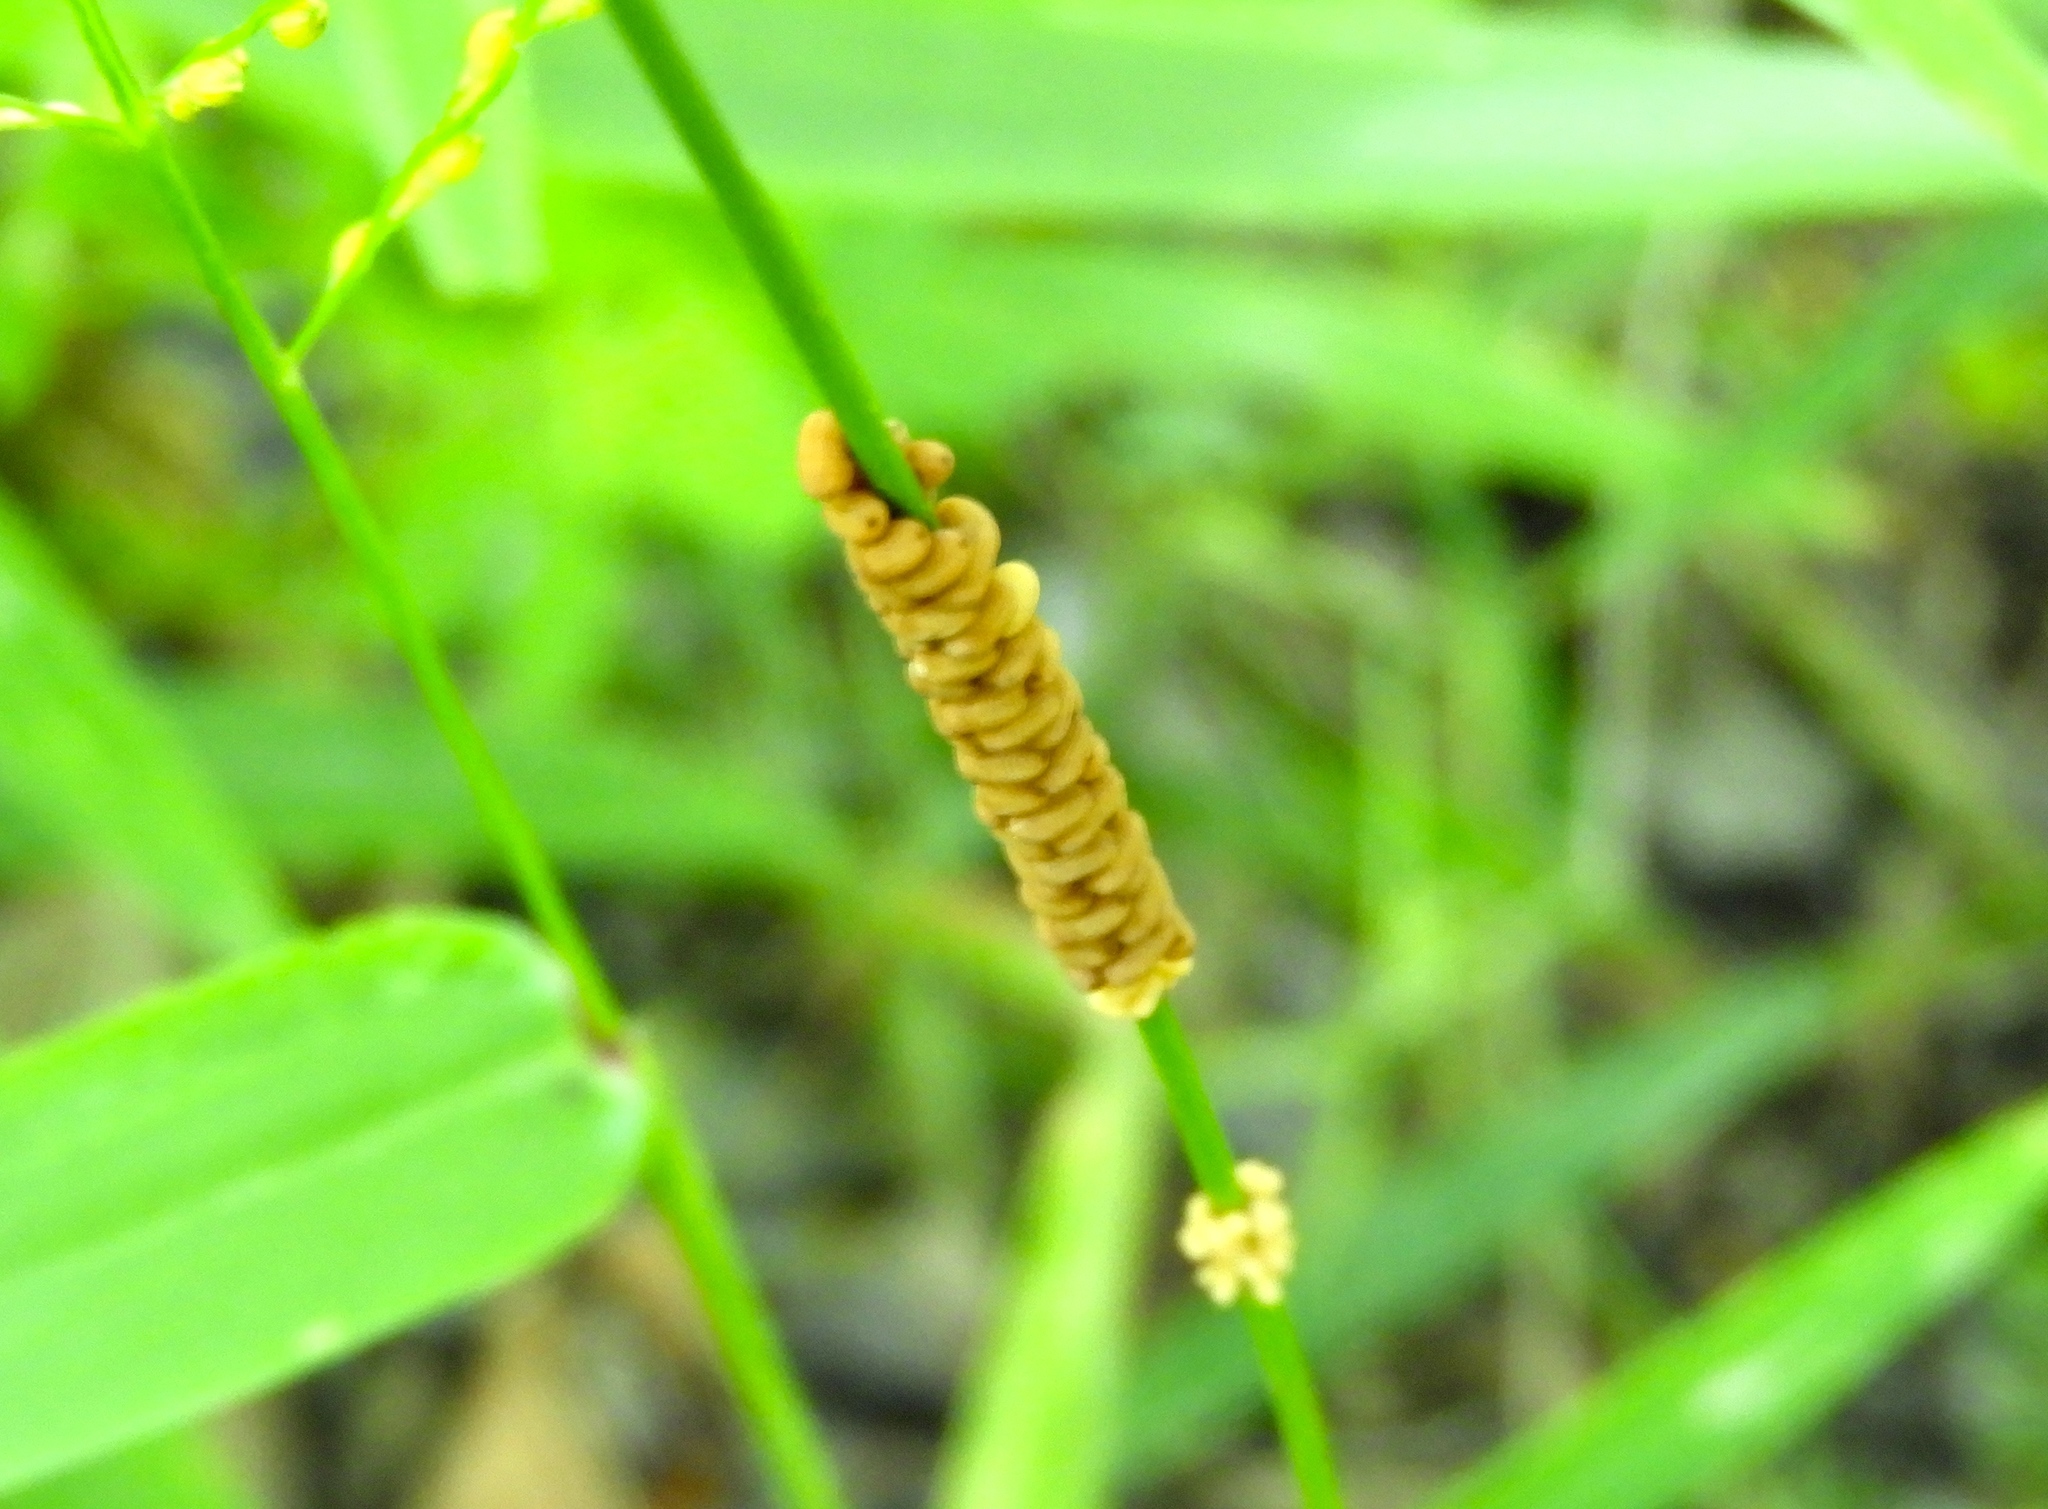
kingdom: Animalia
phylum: Arthropoda
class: Insecta
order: Neuroptera
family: Ascalaphidae
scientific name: Ascalaphidae
